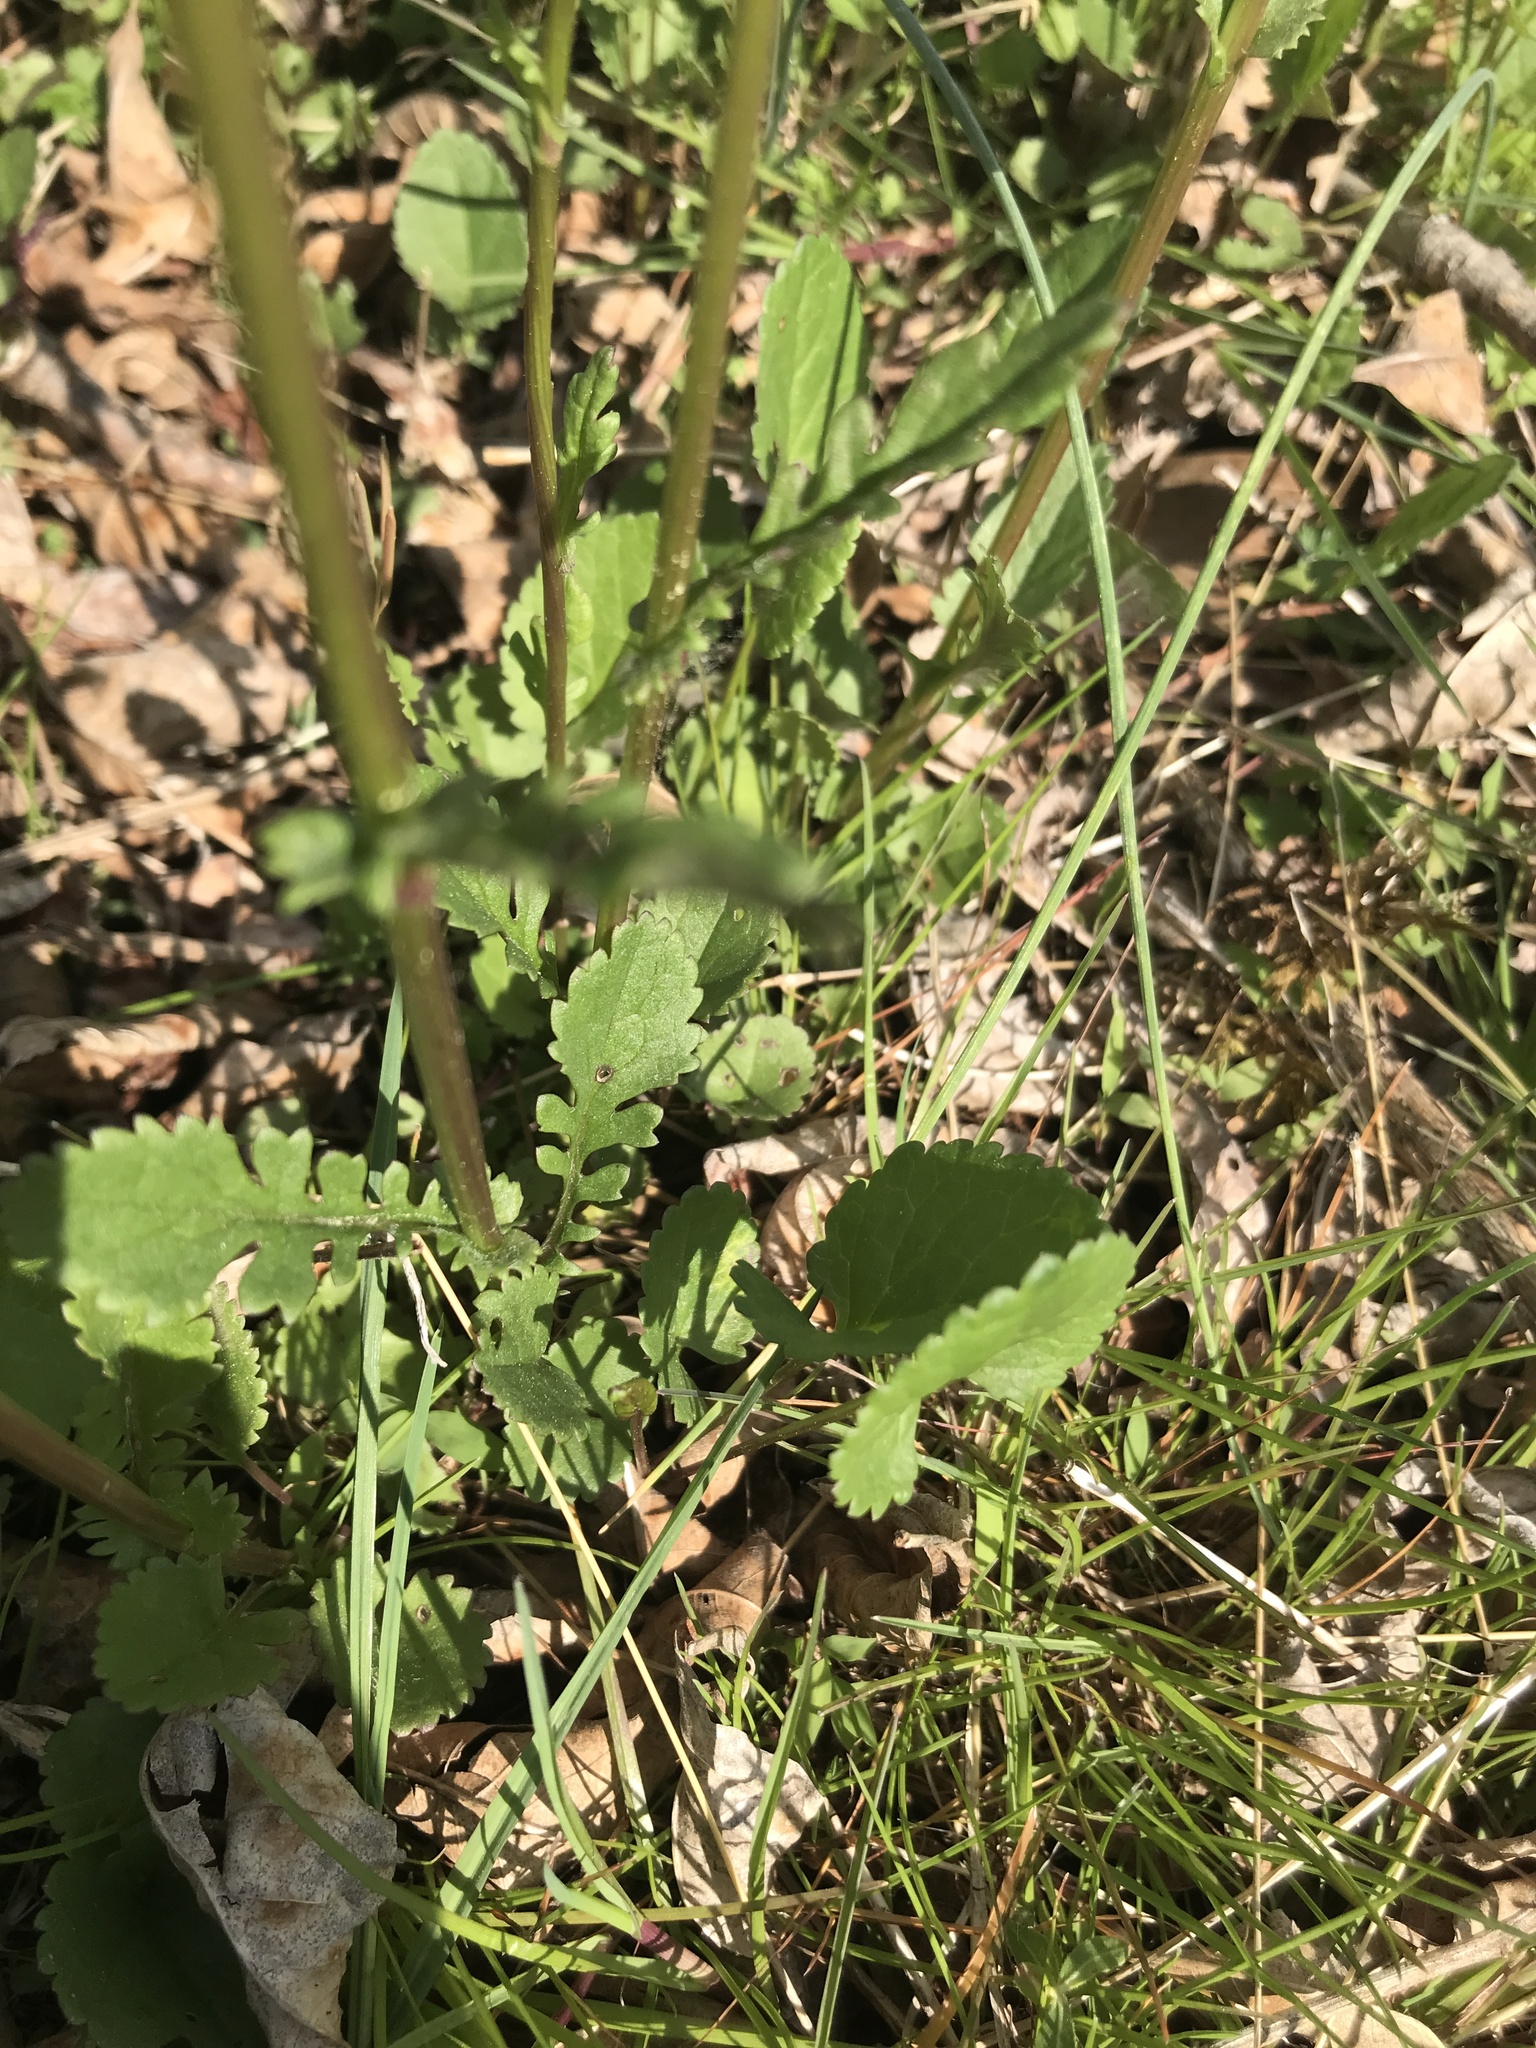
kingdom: Plantae
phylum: Tracheophyta
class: Magnoliopsida
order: Asterales
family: Asteraceae
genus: Packera
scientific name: Packera aurea
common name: Golden groundsel
